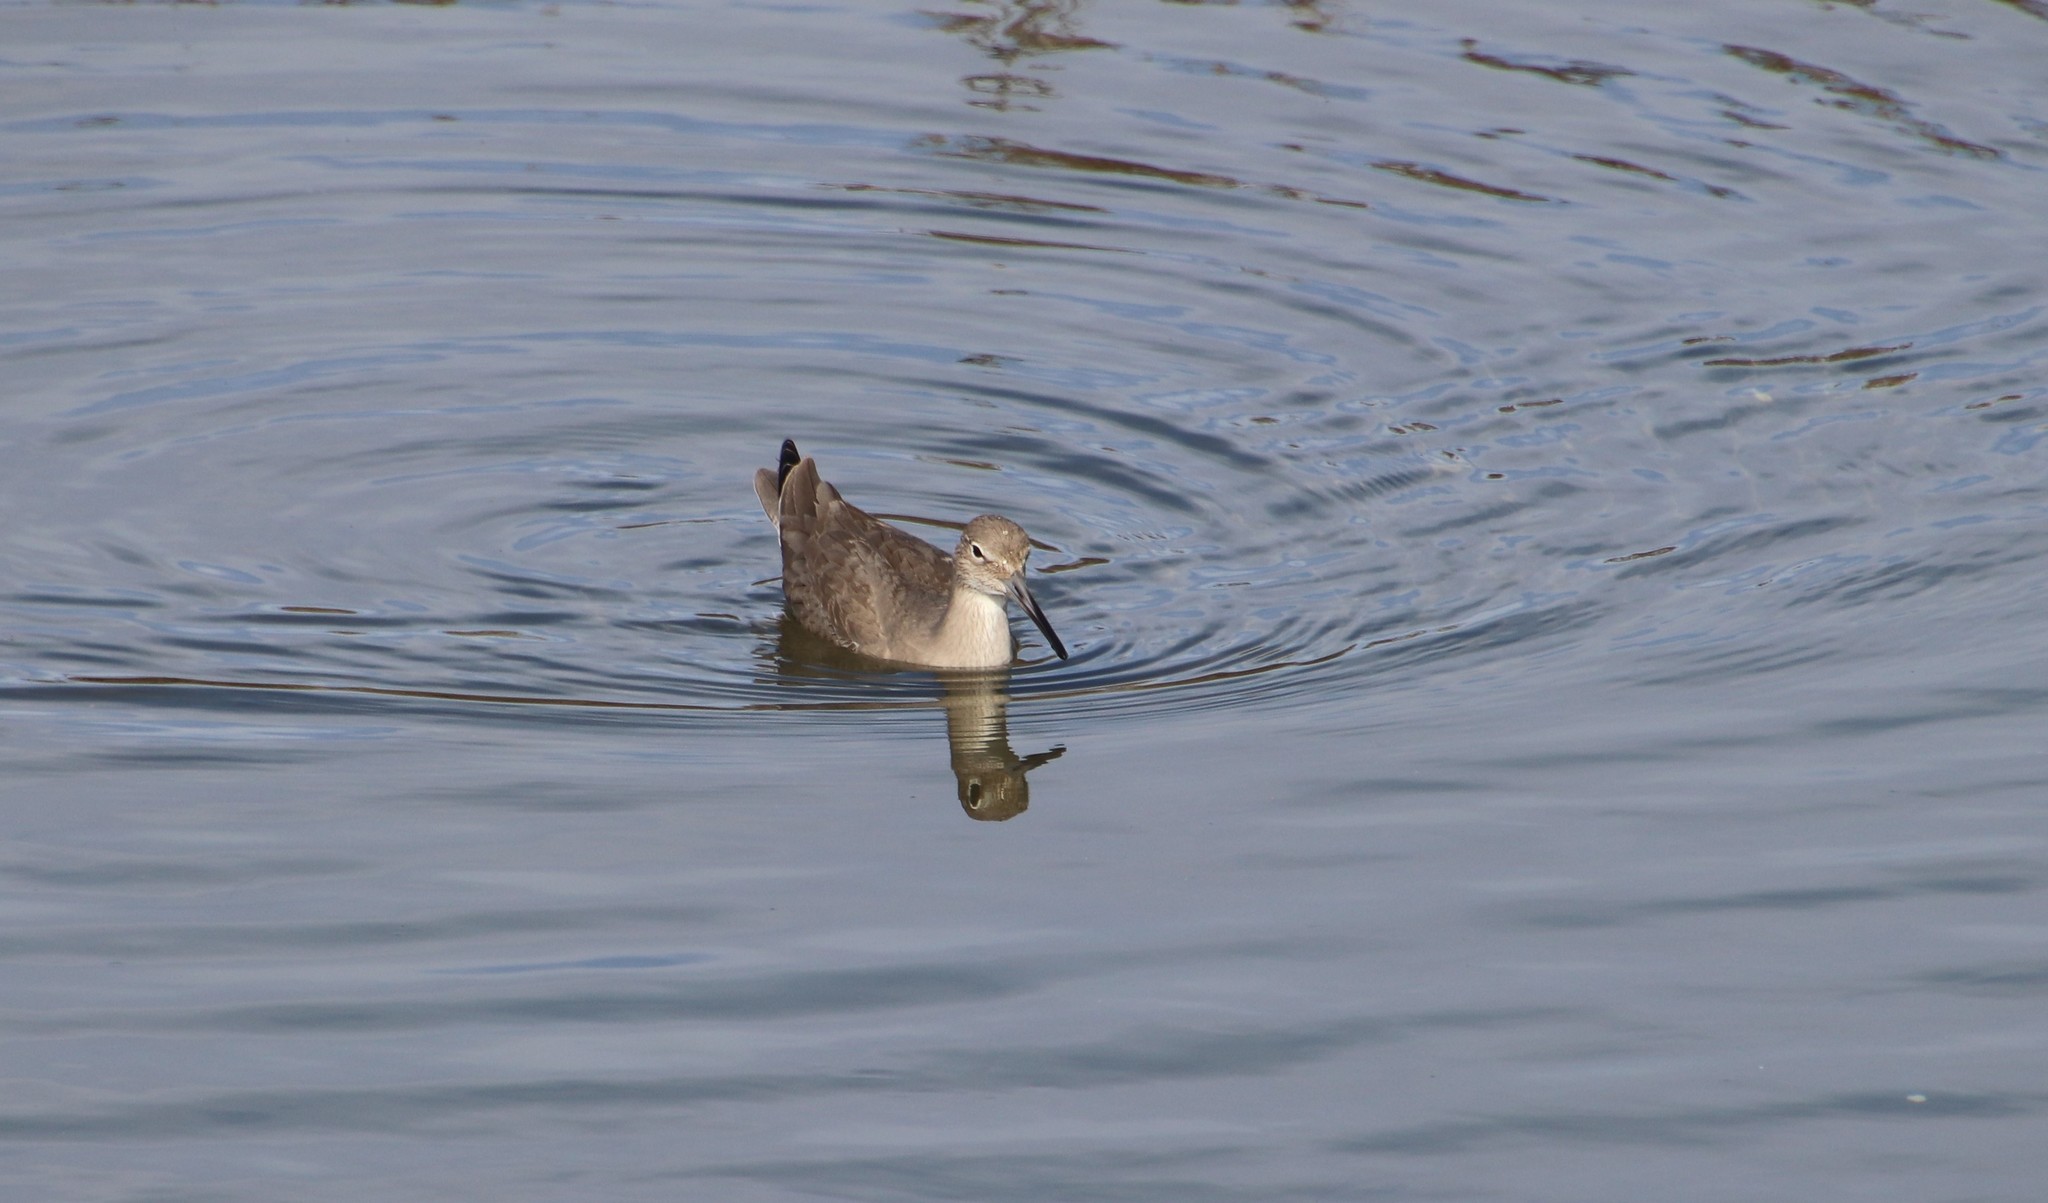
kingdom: Animalia
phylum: Chordata
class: Aves
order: Charadriiformes
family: Scolopacidae
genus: Tringa
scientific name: Tringa semipalmata
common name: Willet
